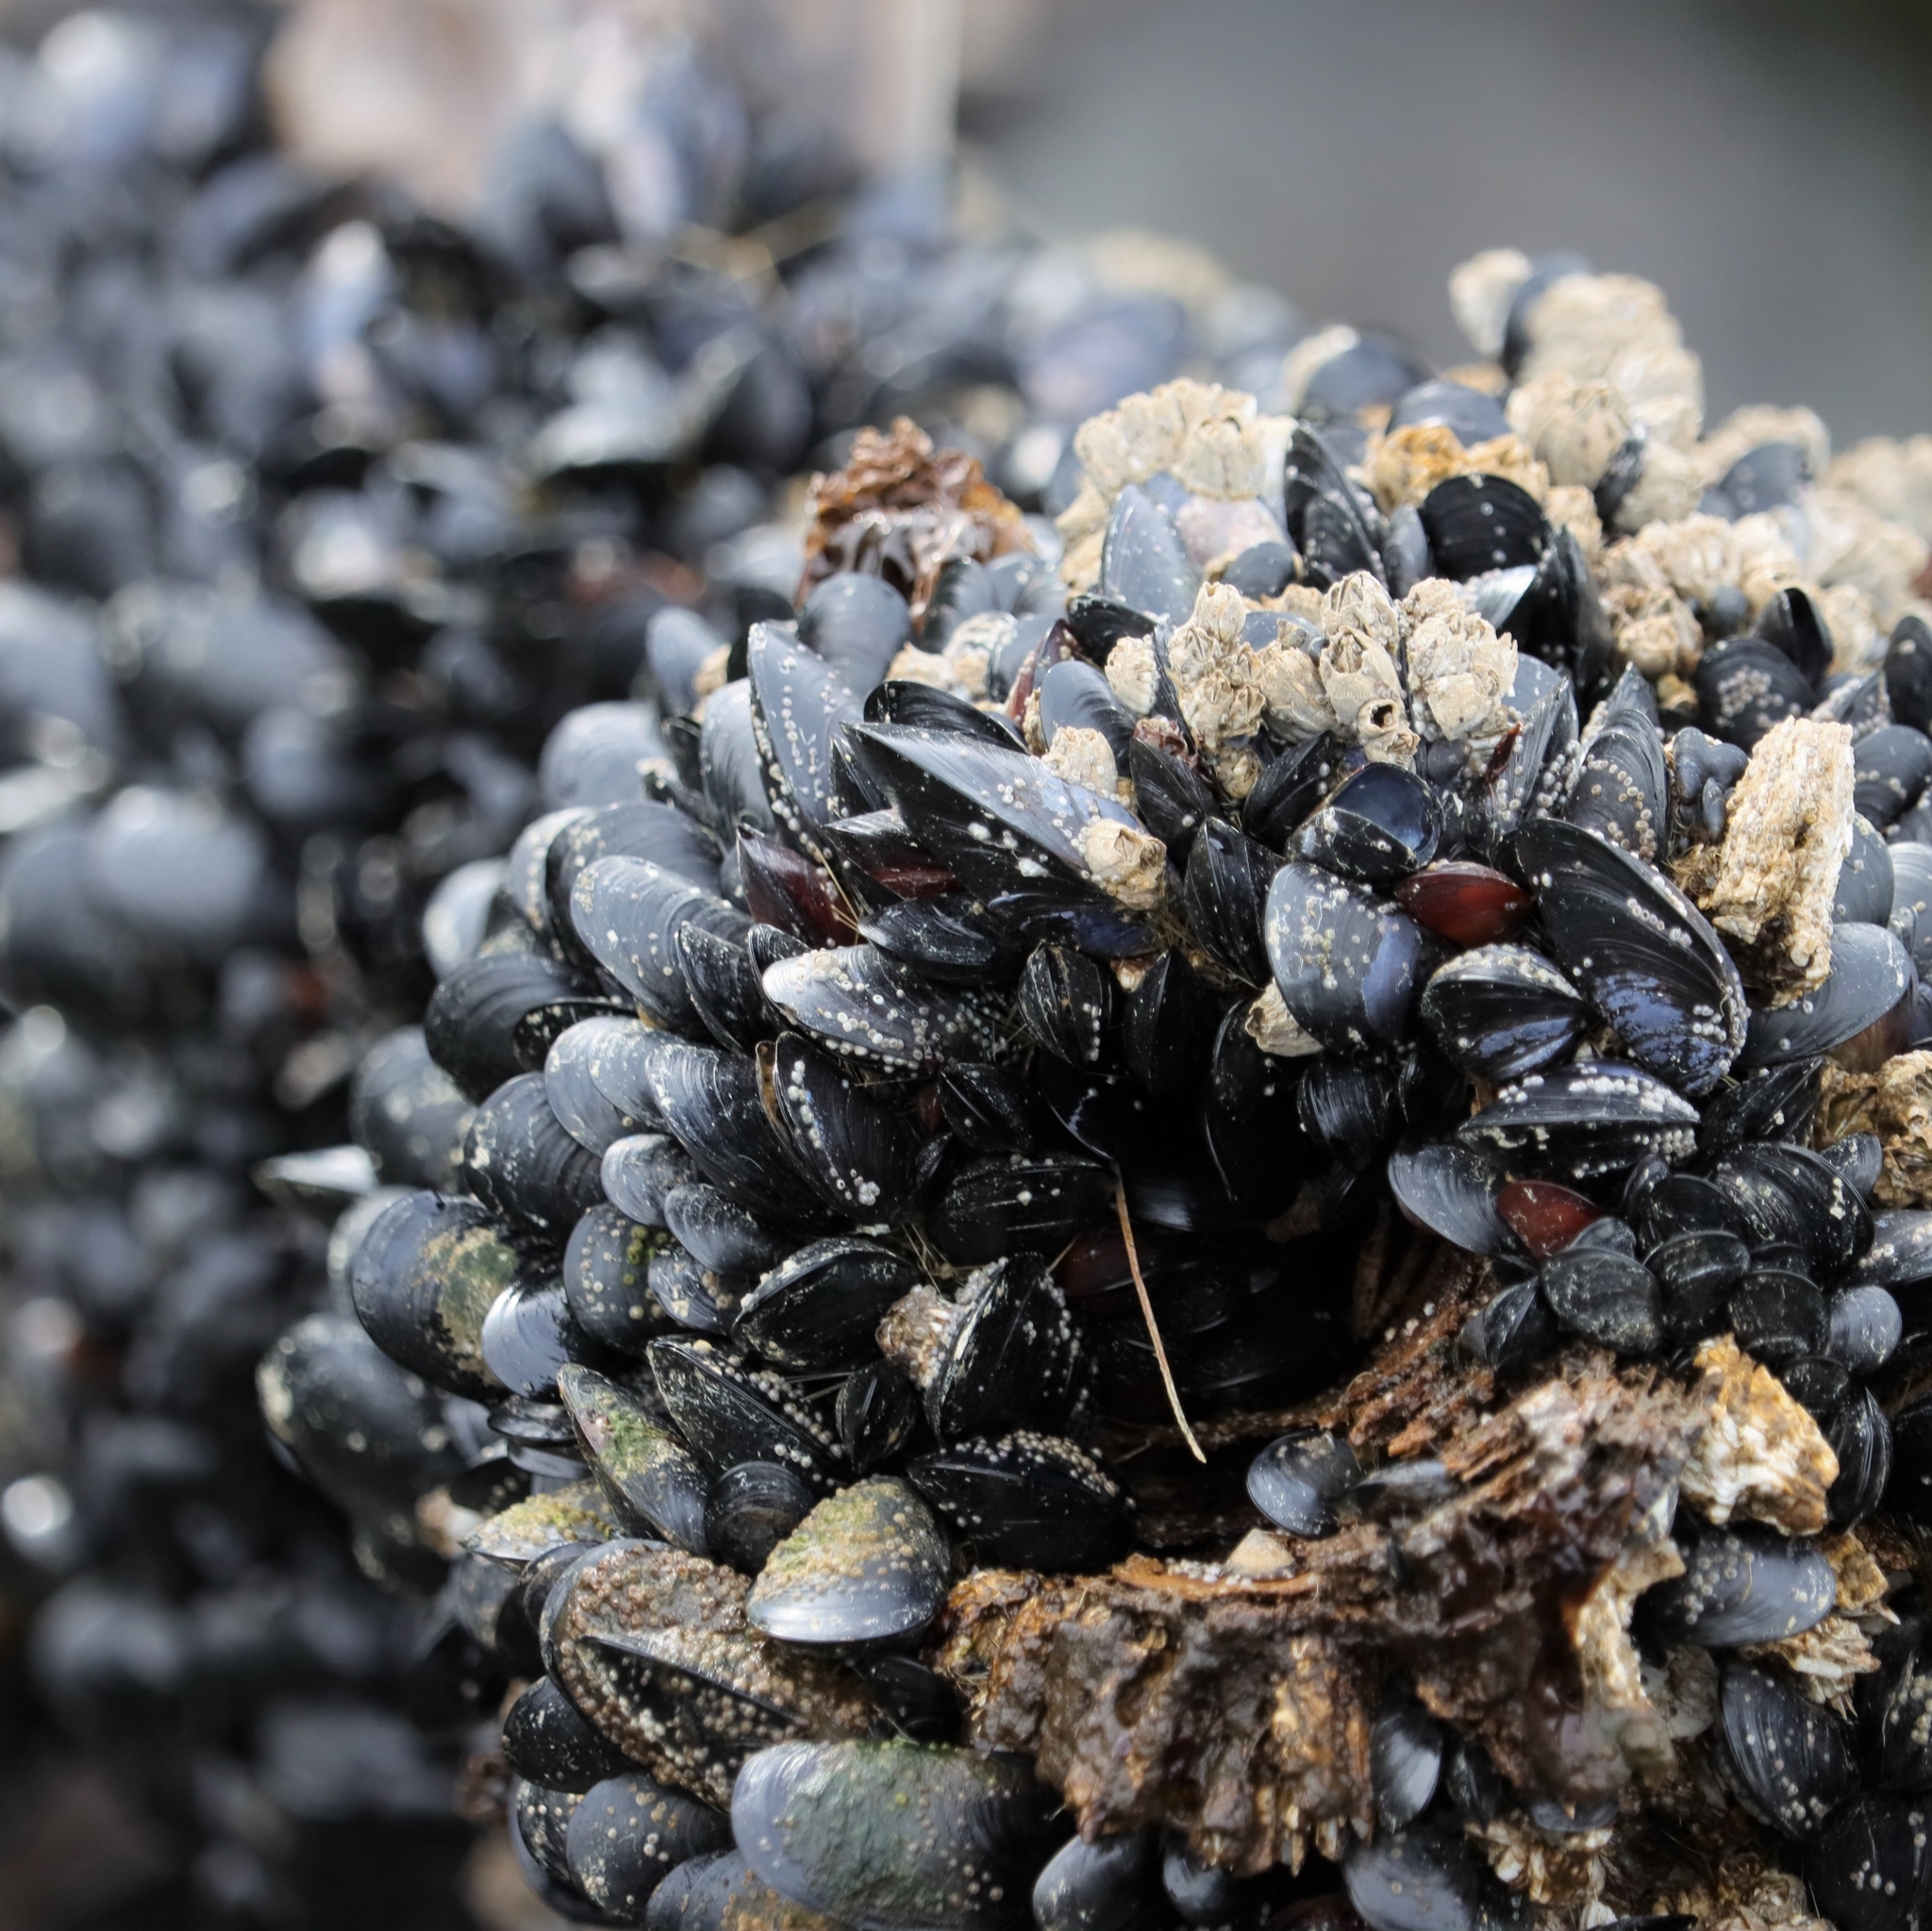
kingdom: Animalia
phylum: Mollusca
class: Bivalvia
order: Mytilida
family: Mytilidae
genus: Mytilus
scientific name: Mytilus
